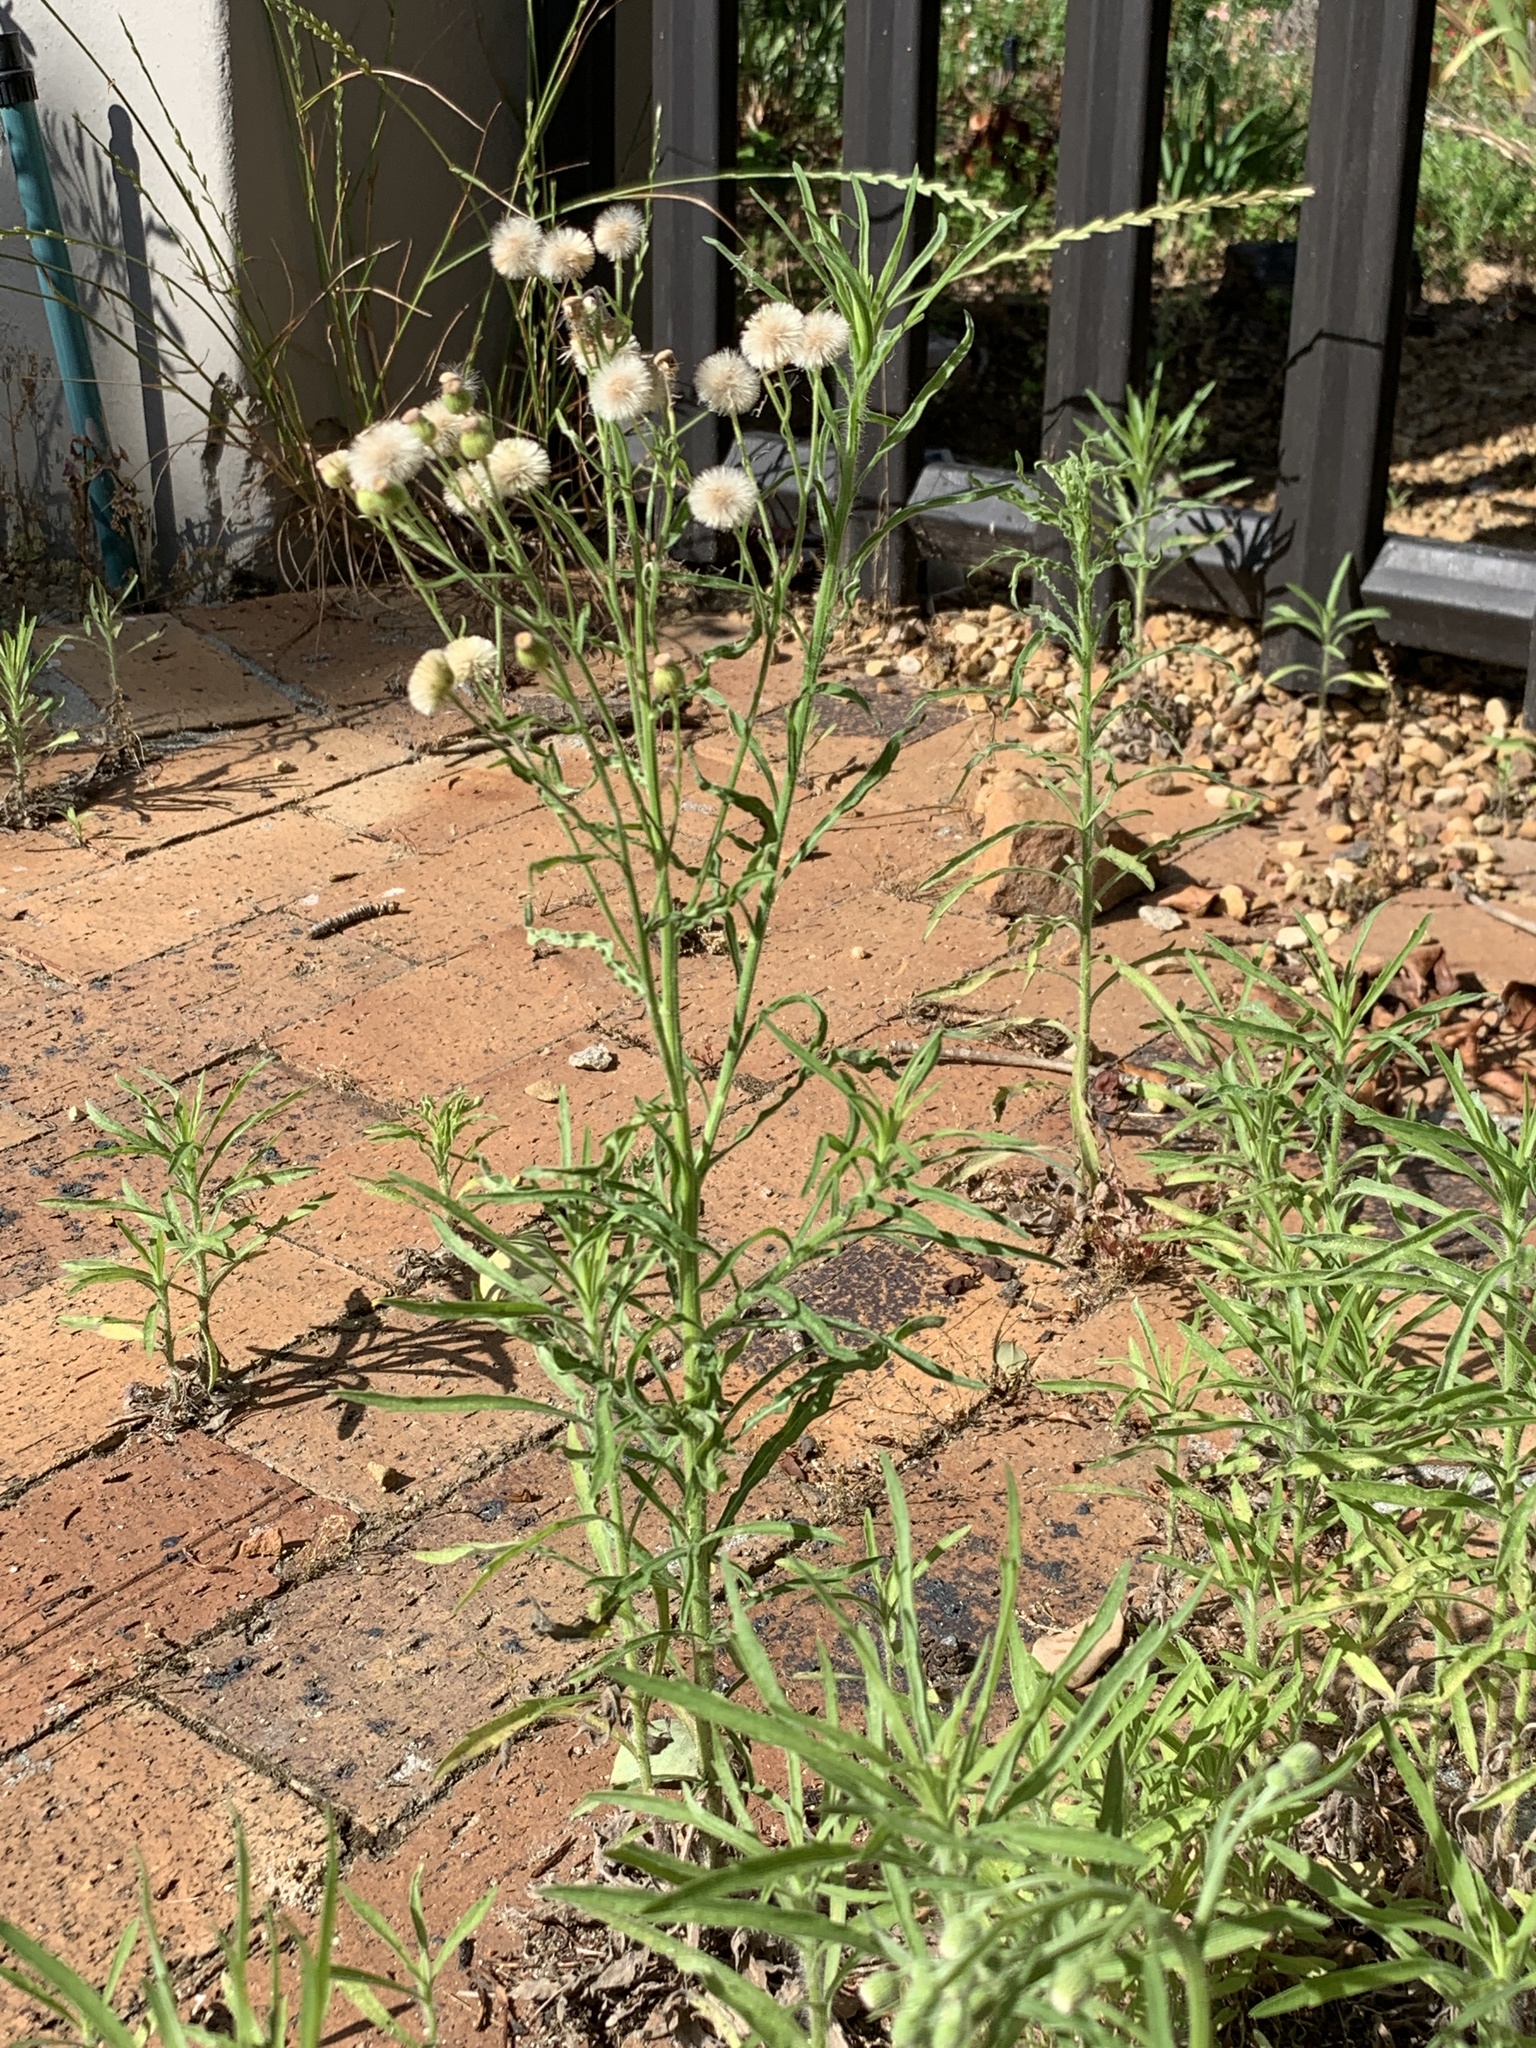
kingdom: Plantae
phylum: Tracheophyta
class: Magnoliopsida
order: Asterales
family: Asteraceae
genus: Erigeron
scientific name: Erigeron bonariensis
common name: Argentine fleabane
